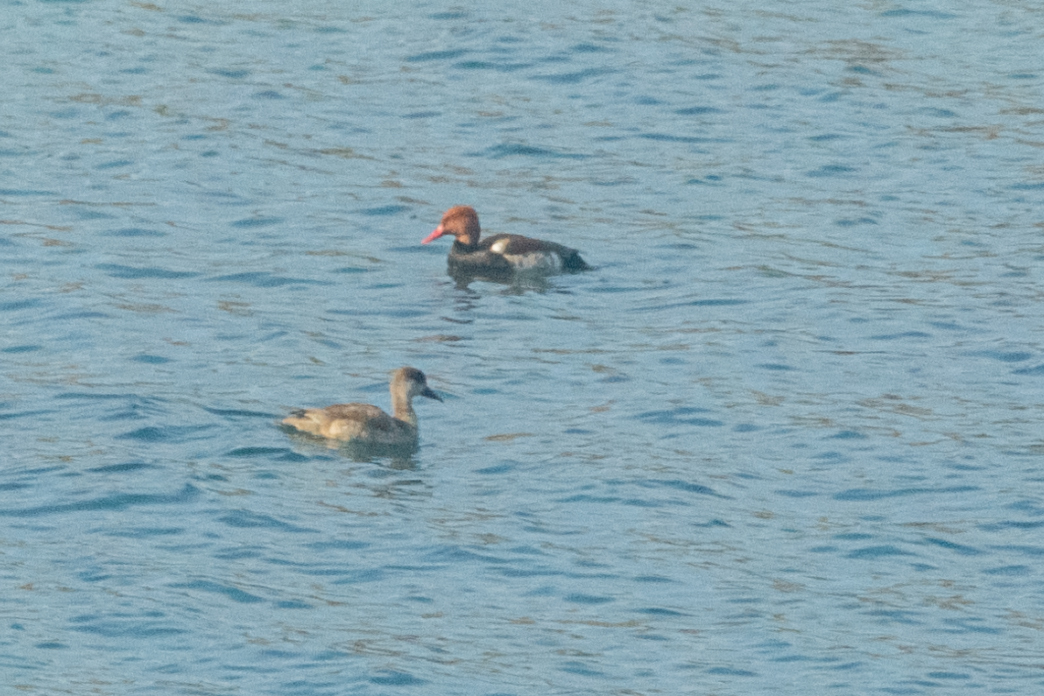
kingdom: Animalia
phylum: Chordata
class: Aves
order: Anseriformes
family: Anatidae
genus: Netta
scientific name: Netta rufina
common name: Red-crested pochard
